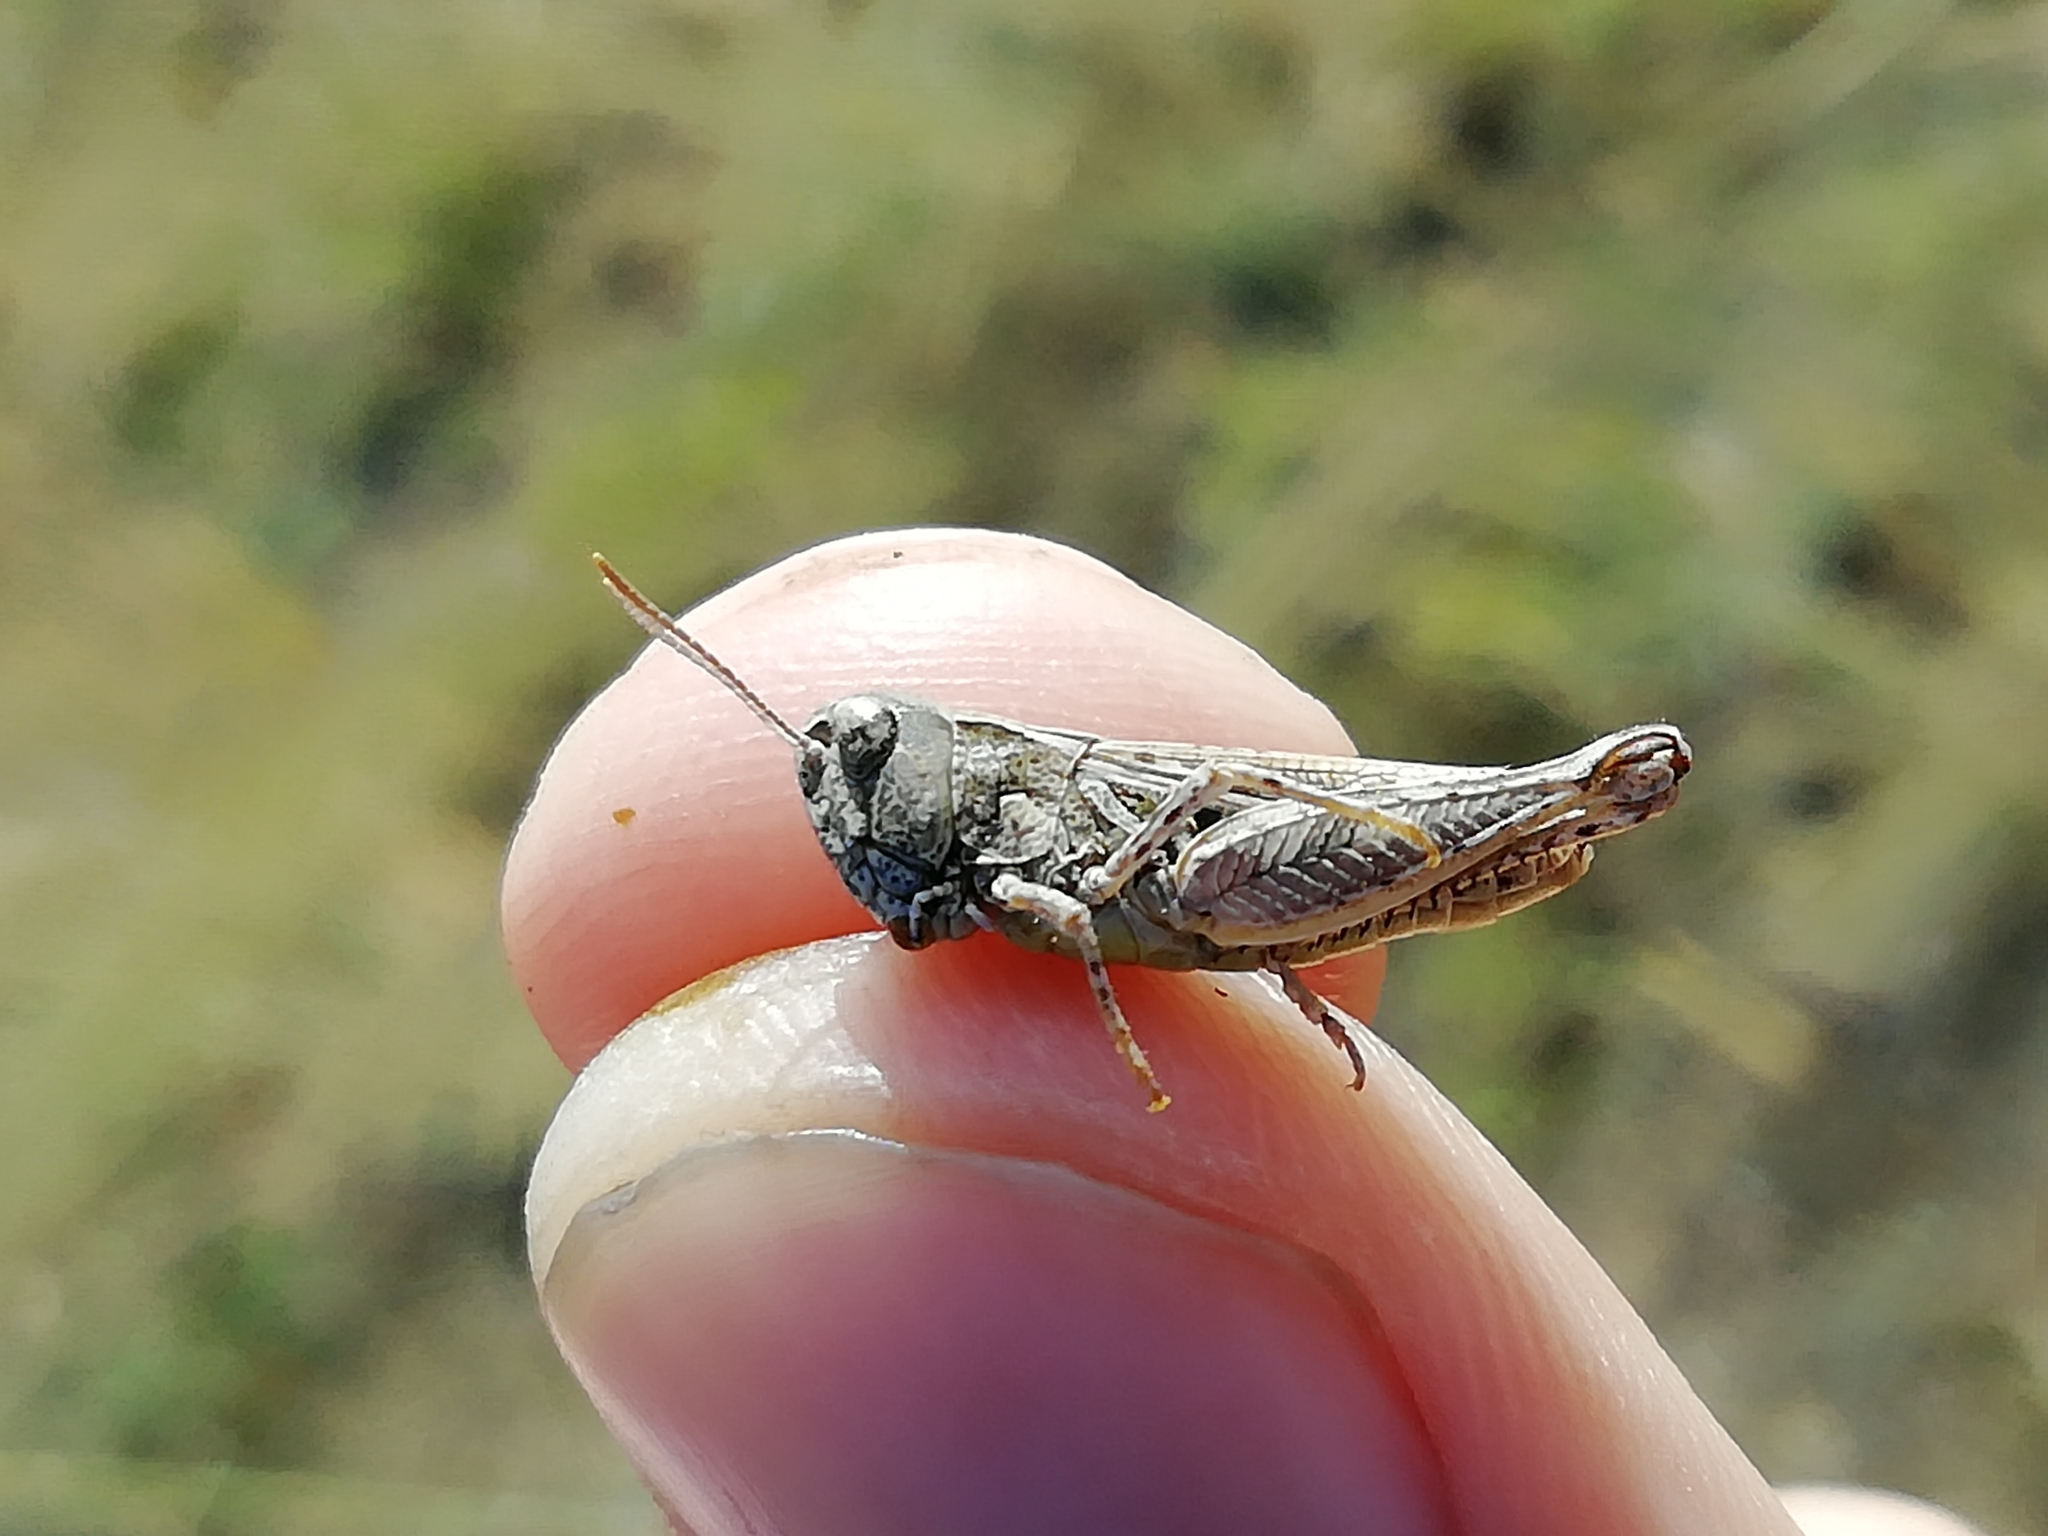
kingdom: Animalia
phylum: Arthropoda
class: Insecta
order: Orthoptera
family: Acrididae
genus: Myrmeleotettix
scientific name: Myrmeleotettix palpalis
